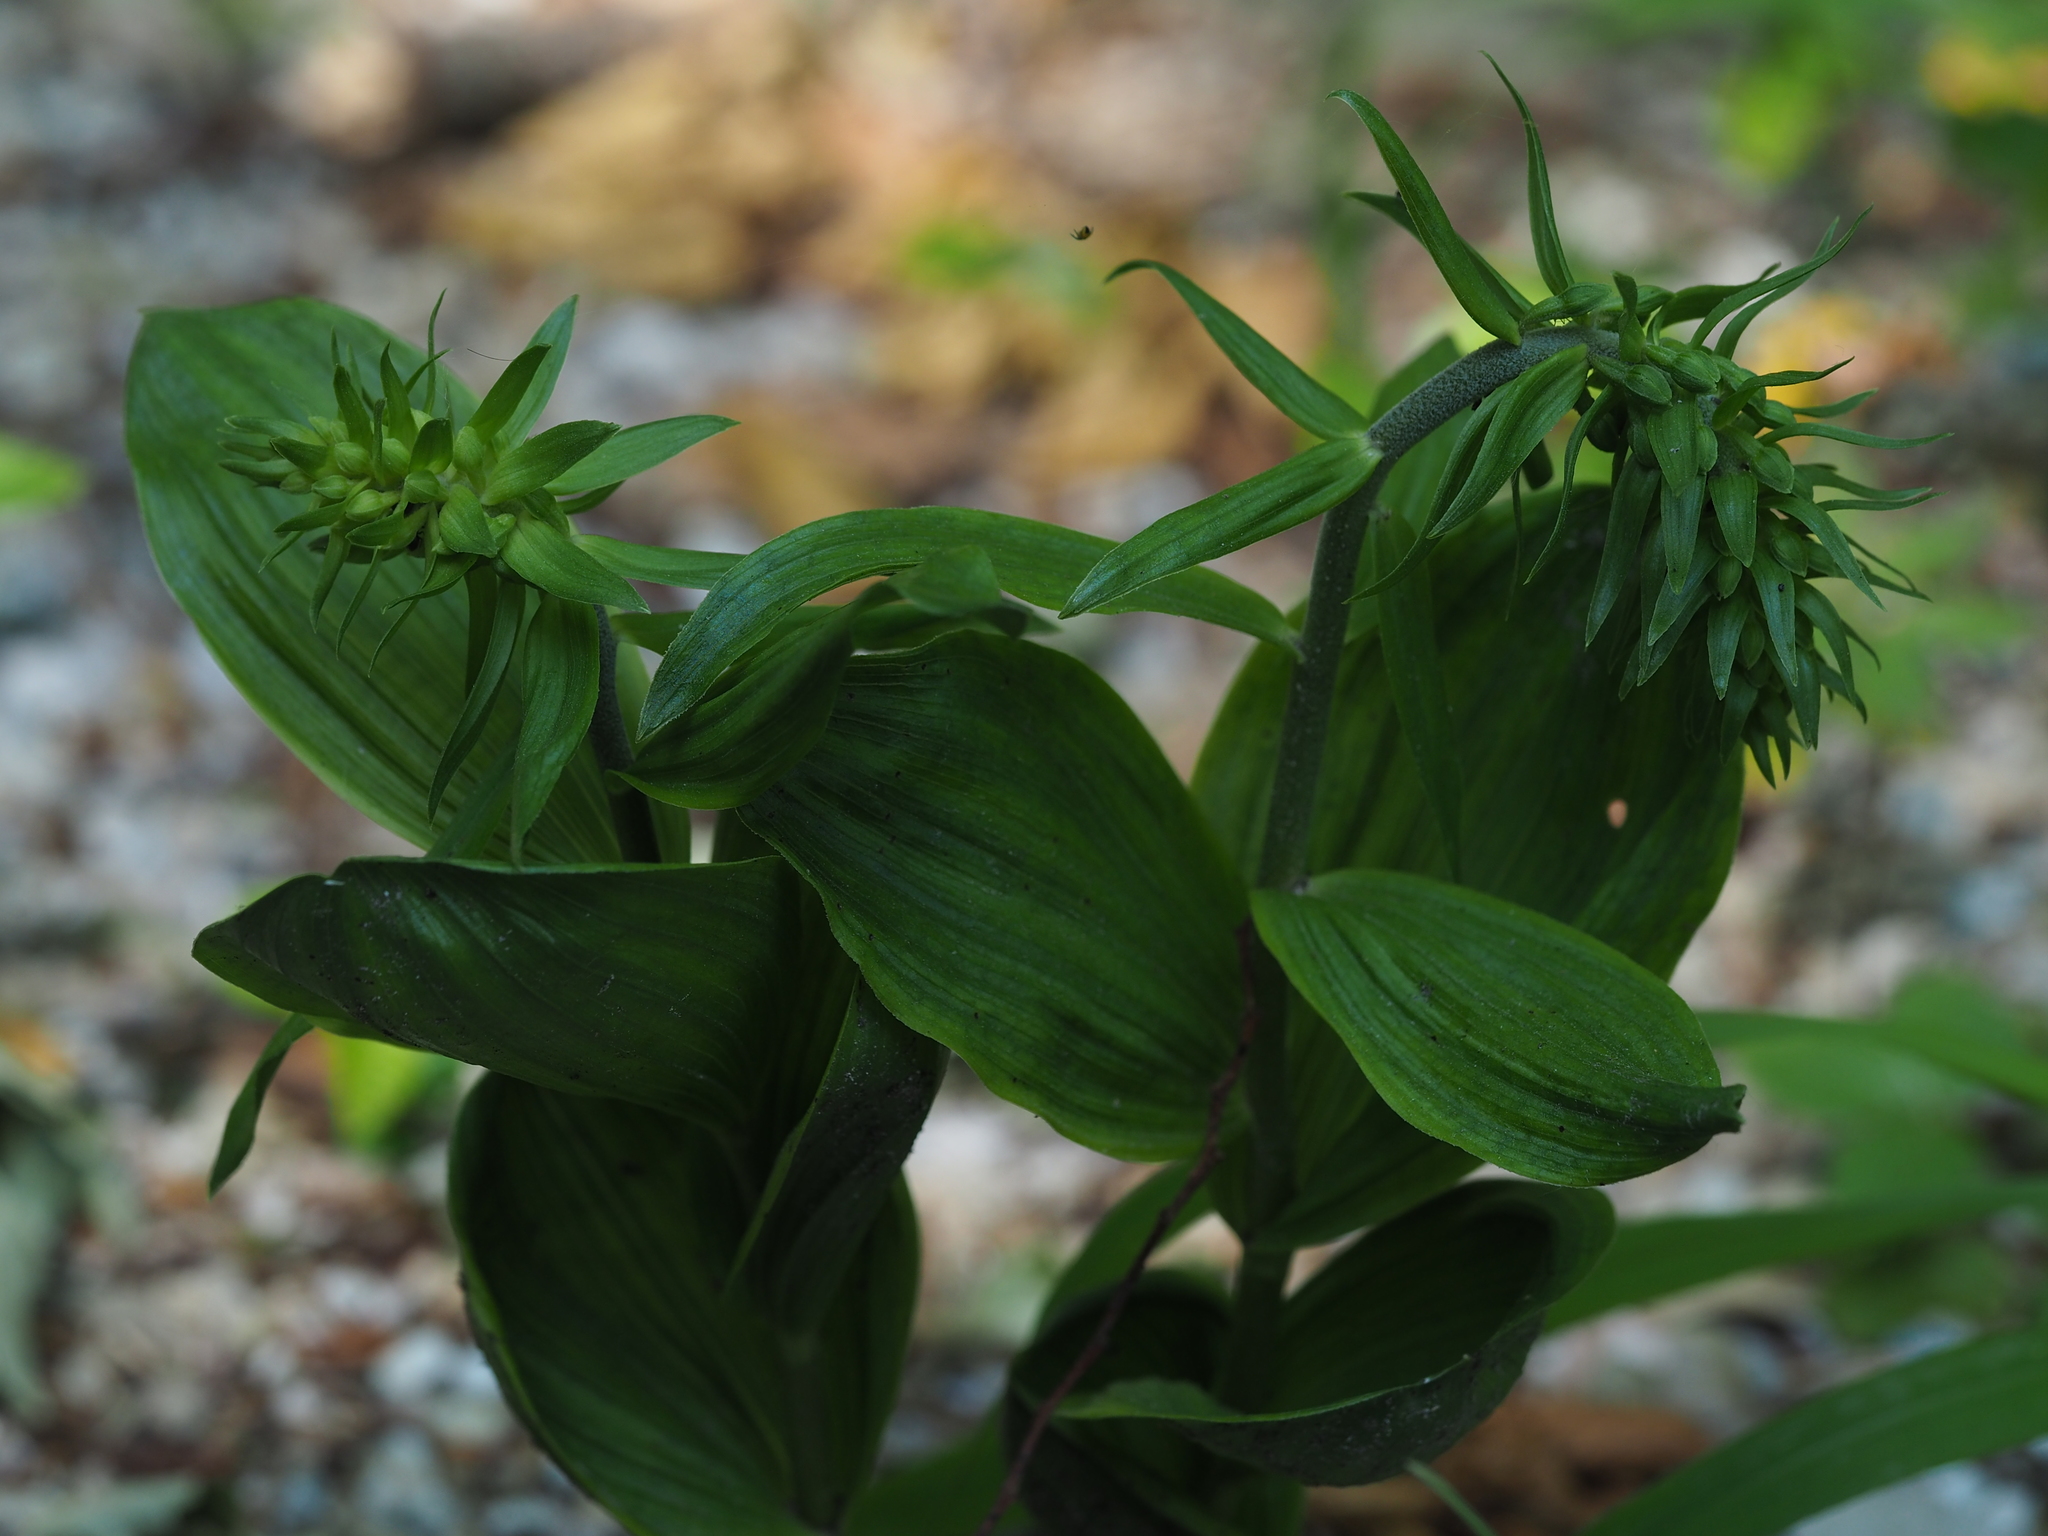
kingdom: Plantae
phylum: Tracheophyta
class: Liliopsida
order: Asparagales
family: Orchidaceae
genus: Epipactis
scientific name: Epipactis helleborine
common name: Broad-leaved helleborine
